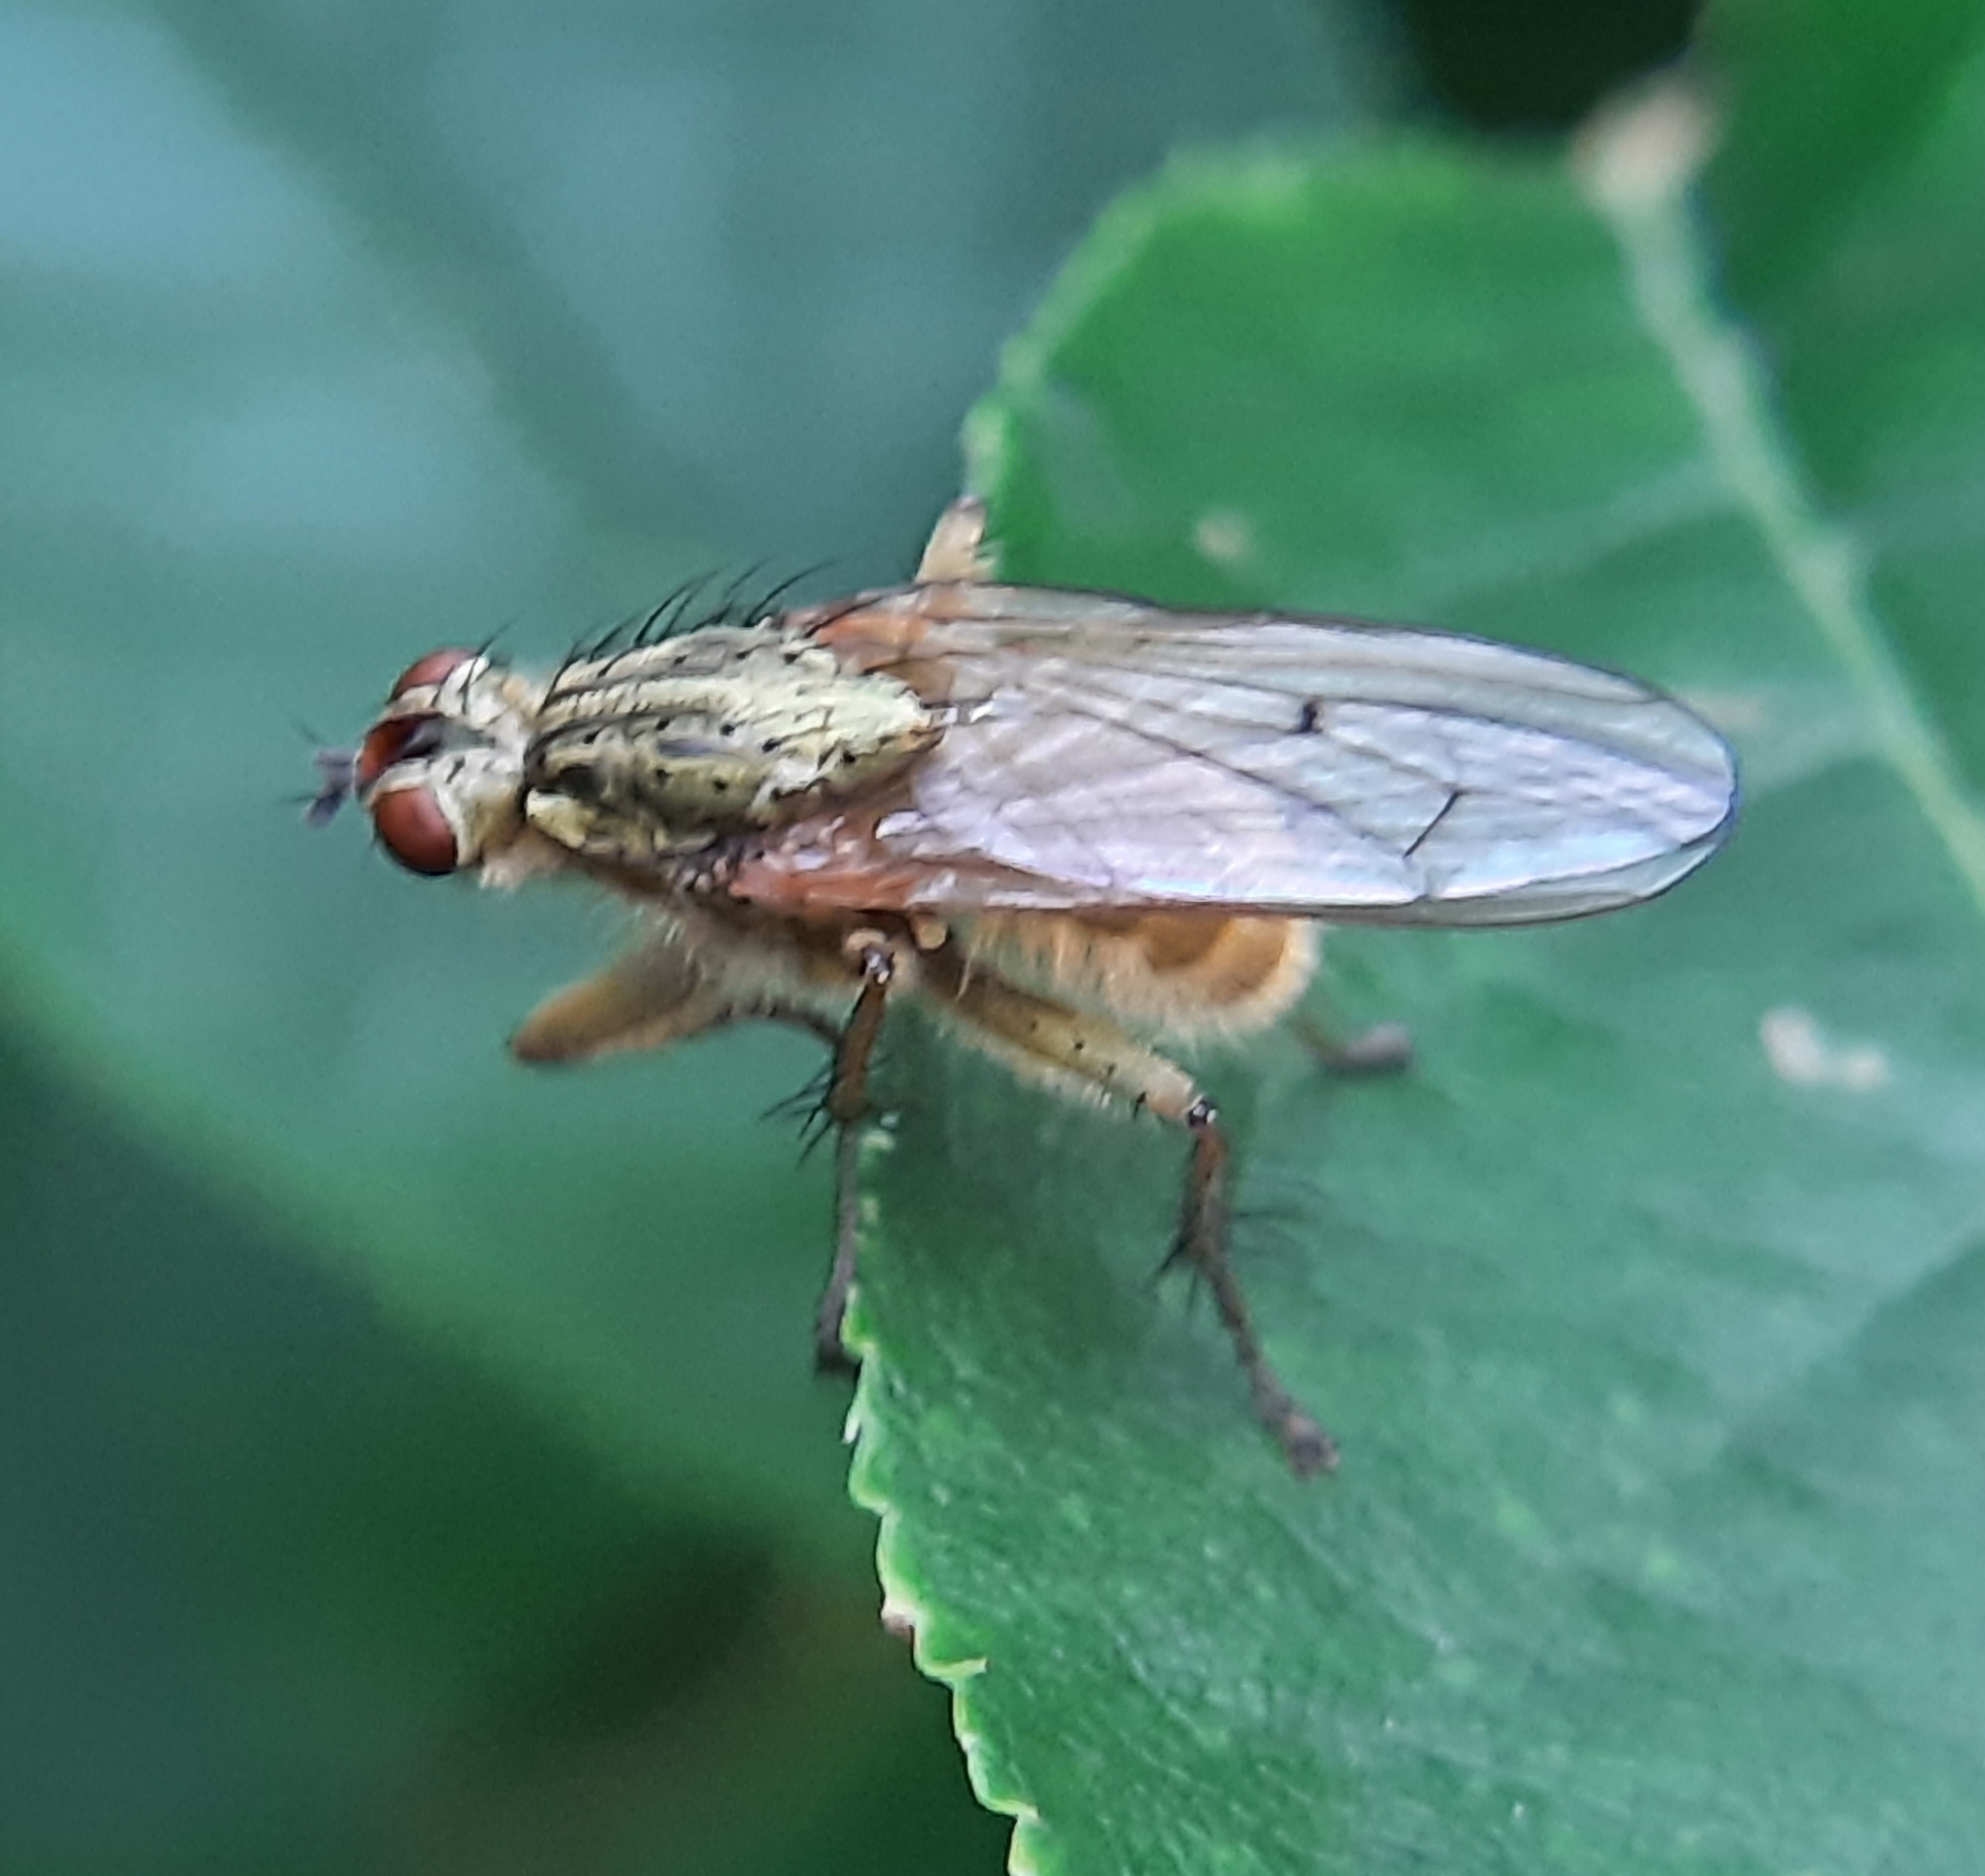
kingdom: Animalia
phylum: Arthropoda
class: Insecta
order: Diptera
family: Scathophagidae
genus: Scathophaga
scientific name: Scathophaga stercoraria
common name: Yellow dung fly
